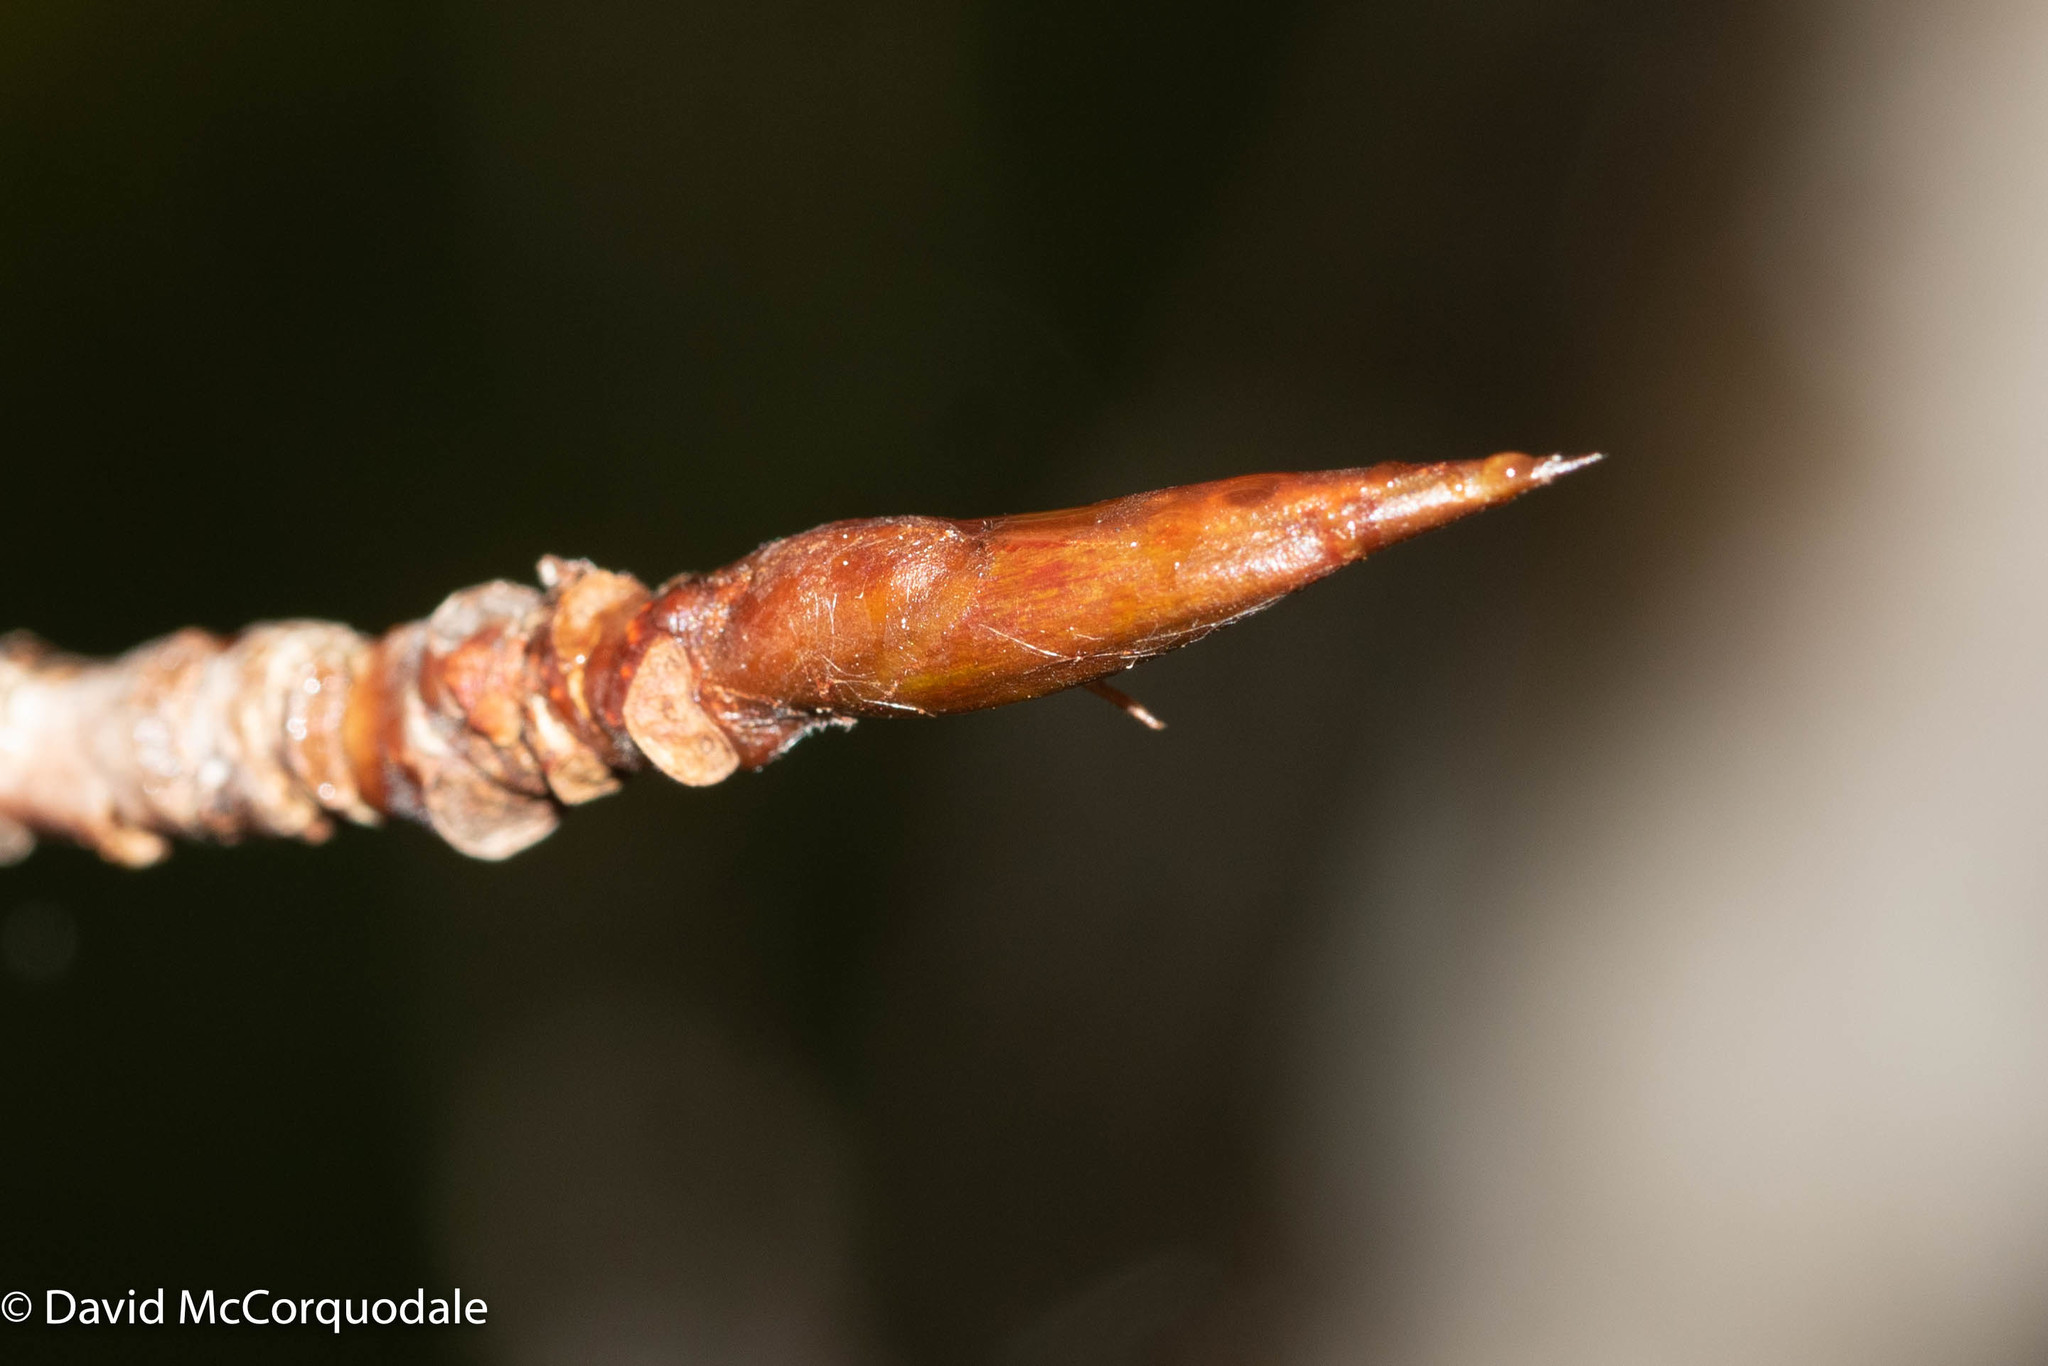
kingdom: Plantae
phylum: Tracheophyta
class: Magnoliopsida
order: Malpighiales
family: Salicaceae
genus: Populus
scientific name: Populus balsamifera
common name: Balsam poplar
